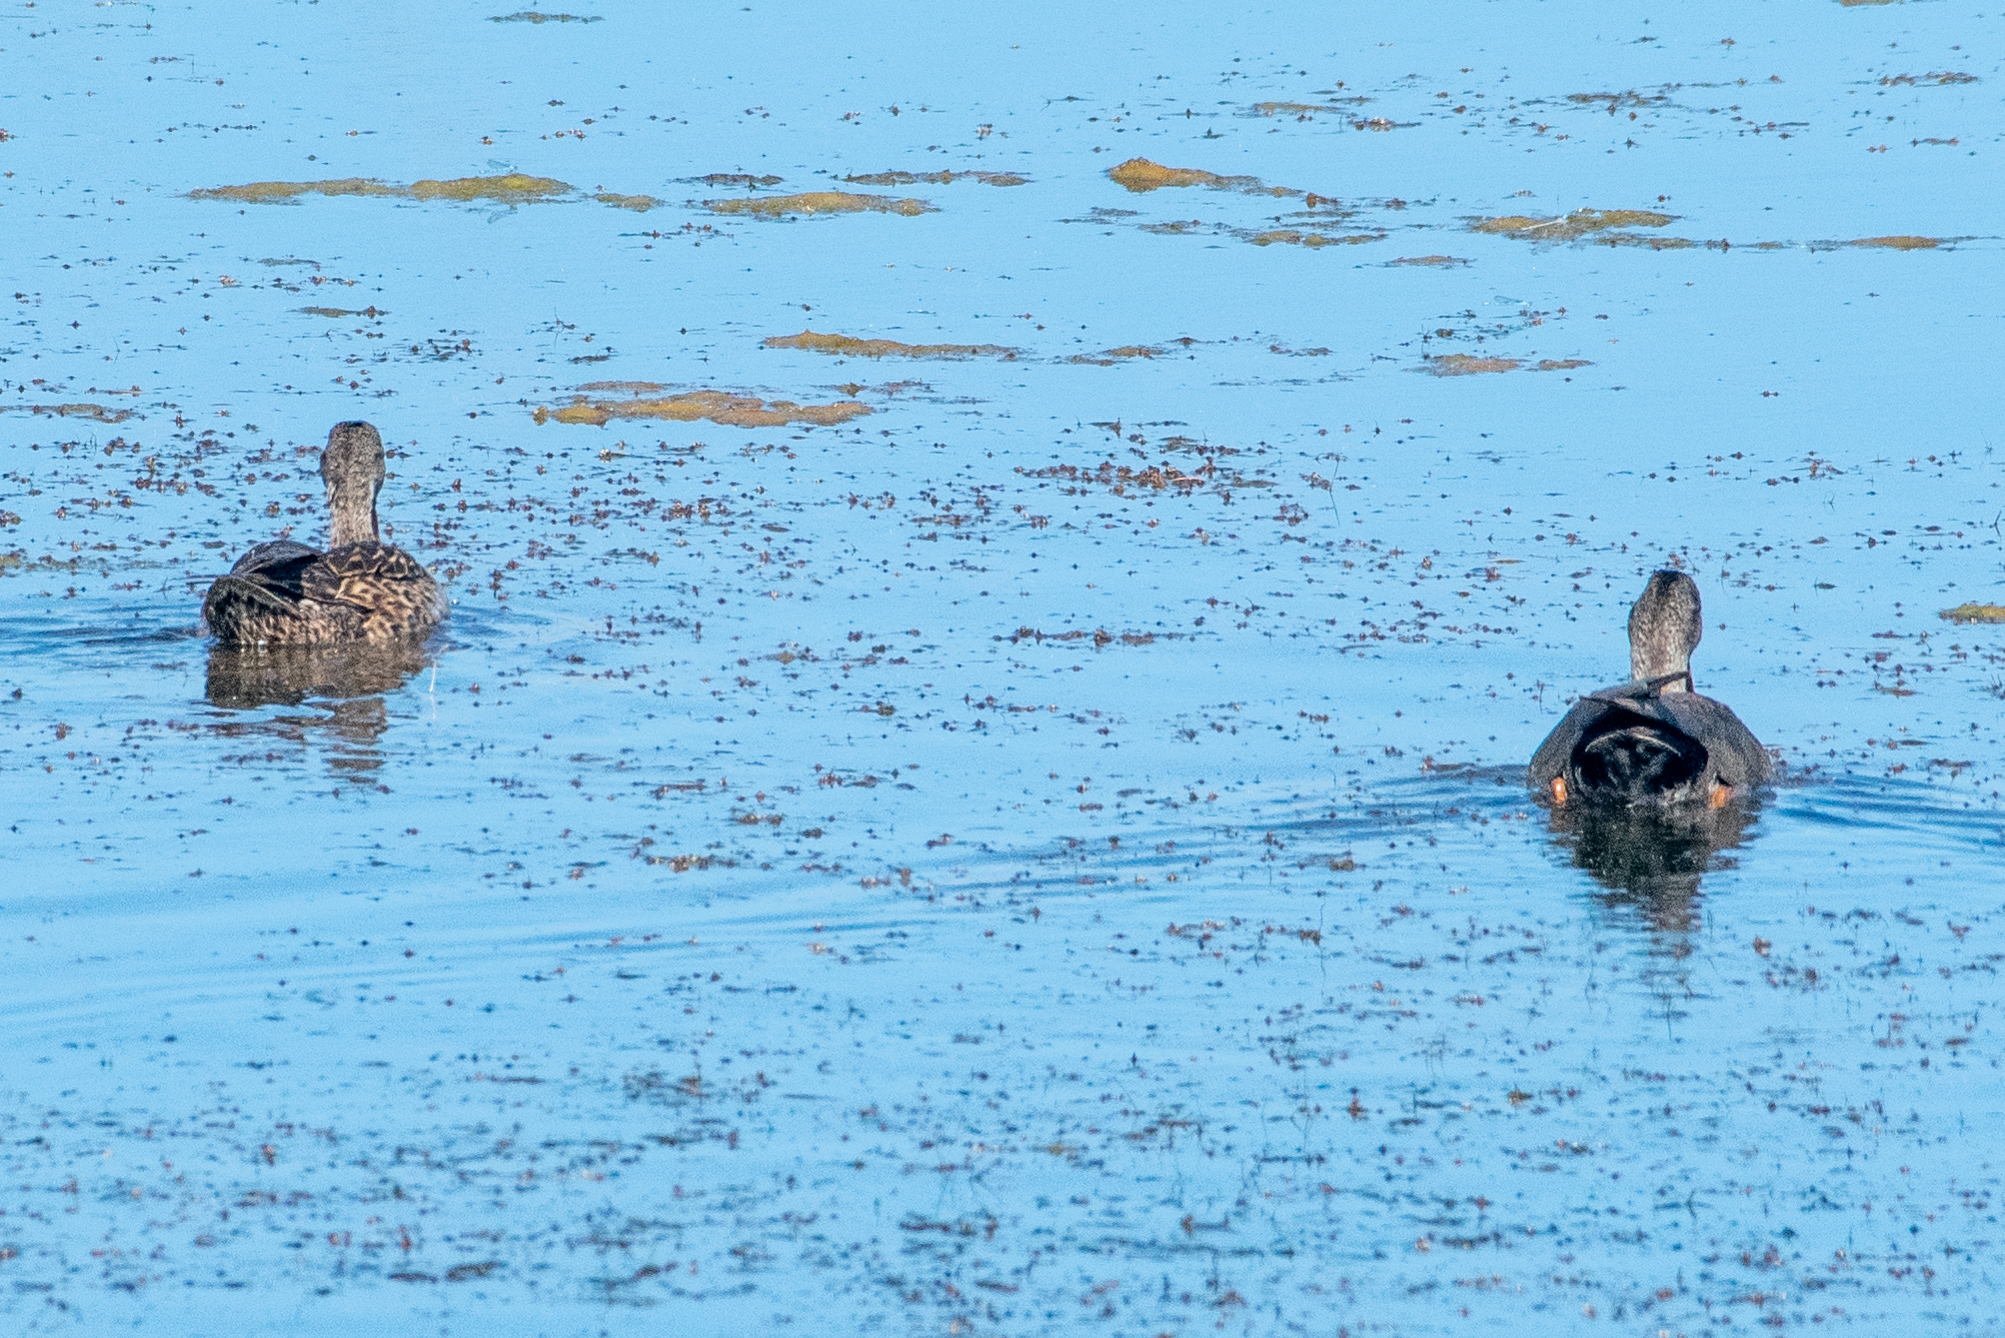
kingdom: Animalia
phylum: Chordata
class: Aves
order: Anseriformes
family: Anatidae
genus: Mareca
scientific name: Mareca strepera
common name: Gadwall
